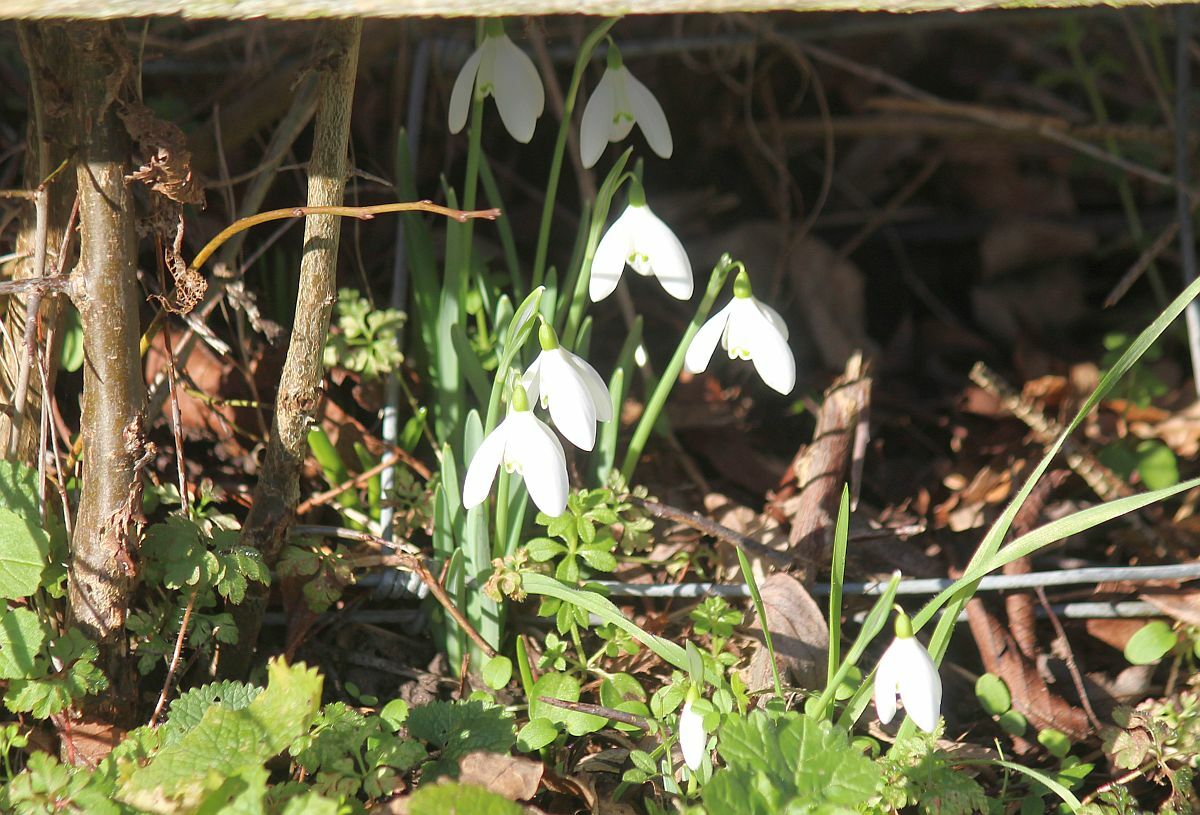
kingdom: Plantae
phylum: Tracheophyta
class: Liliopsida
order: Asparagales
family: Amaryllidaceae
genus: Galanthus
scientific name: Galanthus nivalis
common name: Snowdrop
